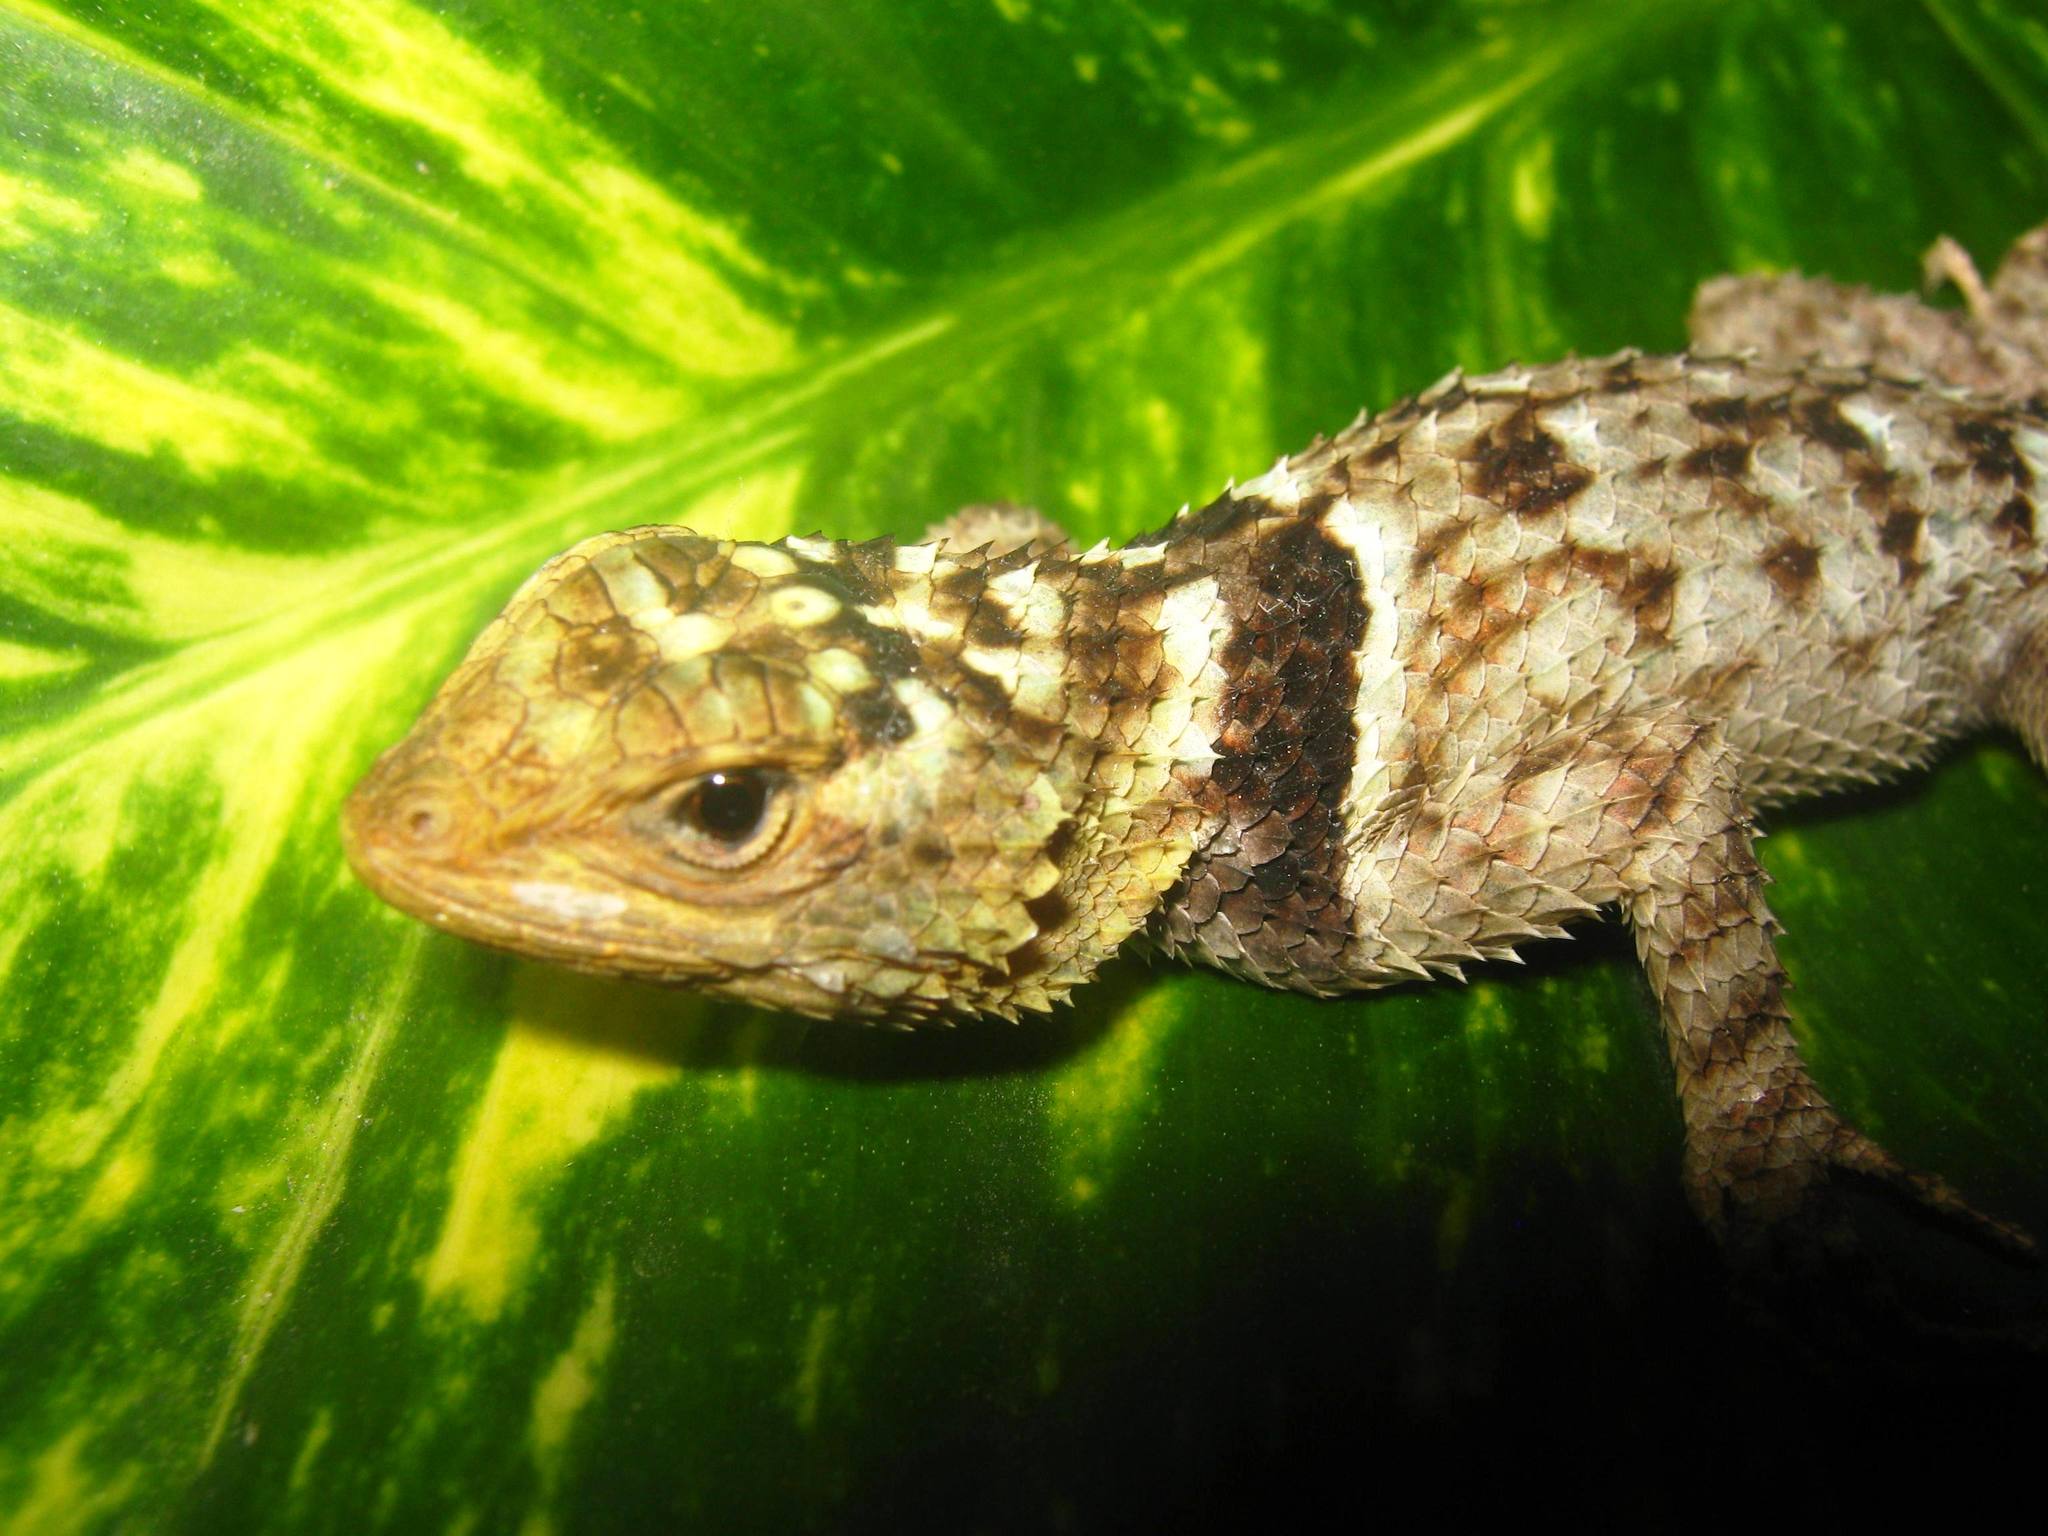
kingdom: Animalia
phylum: Chordata
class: Squamata
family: Phrynosomatidae
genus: Sceloporus
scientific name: Sceloporus serrifer
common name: Blue spiny lizard
